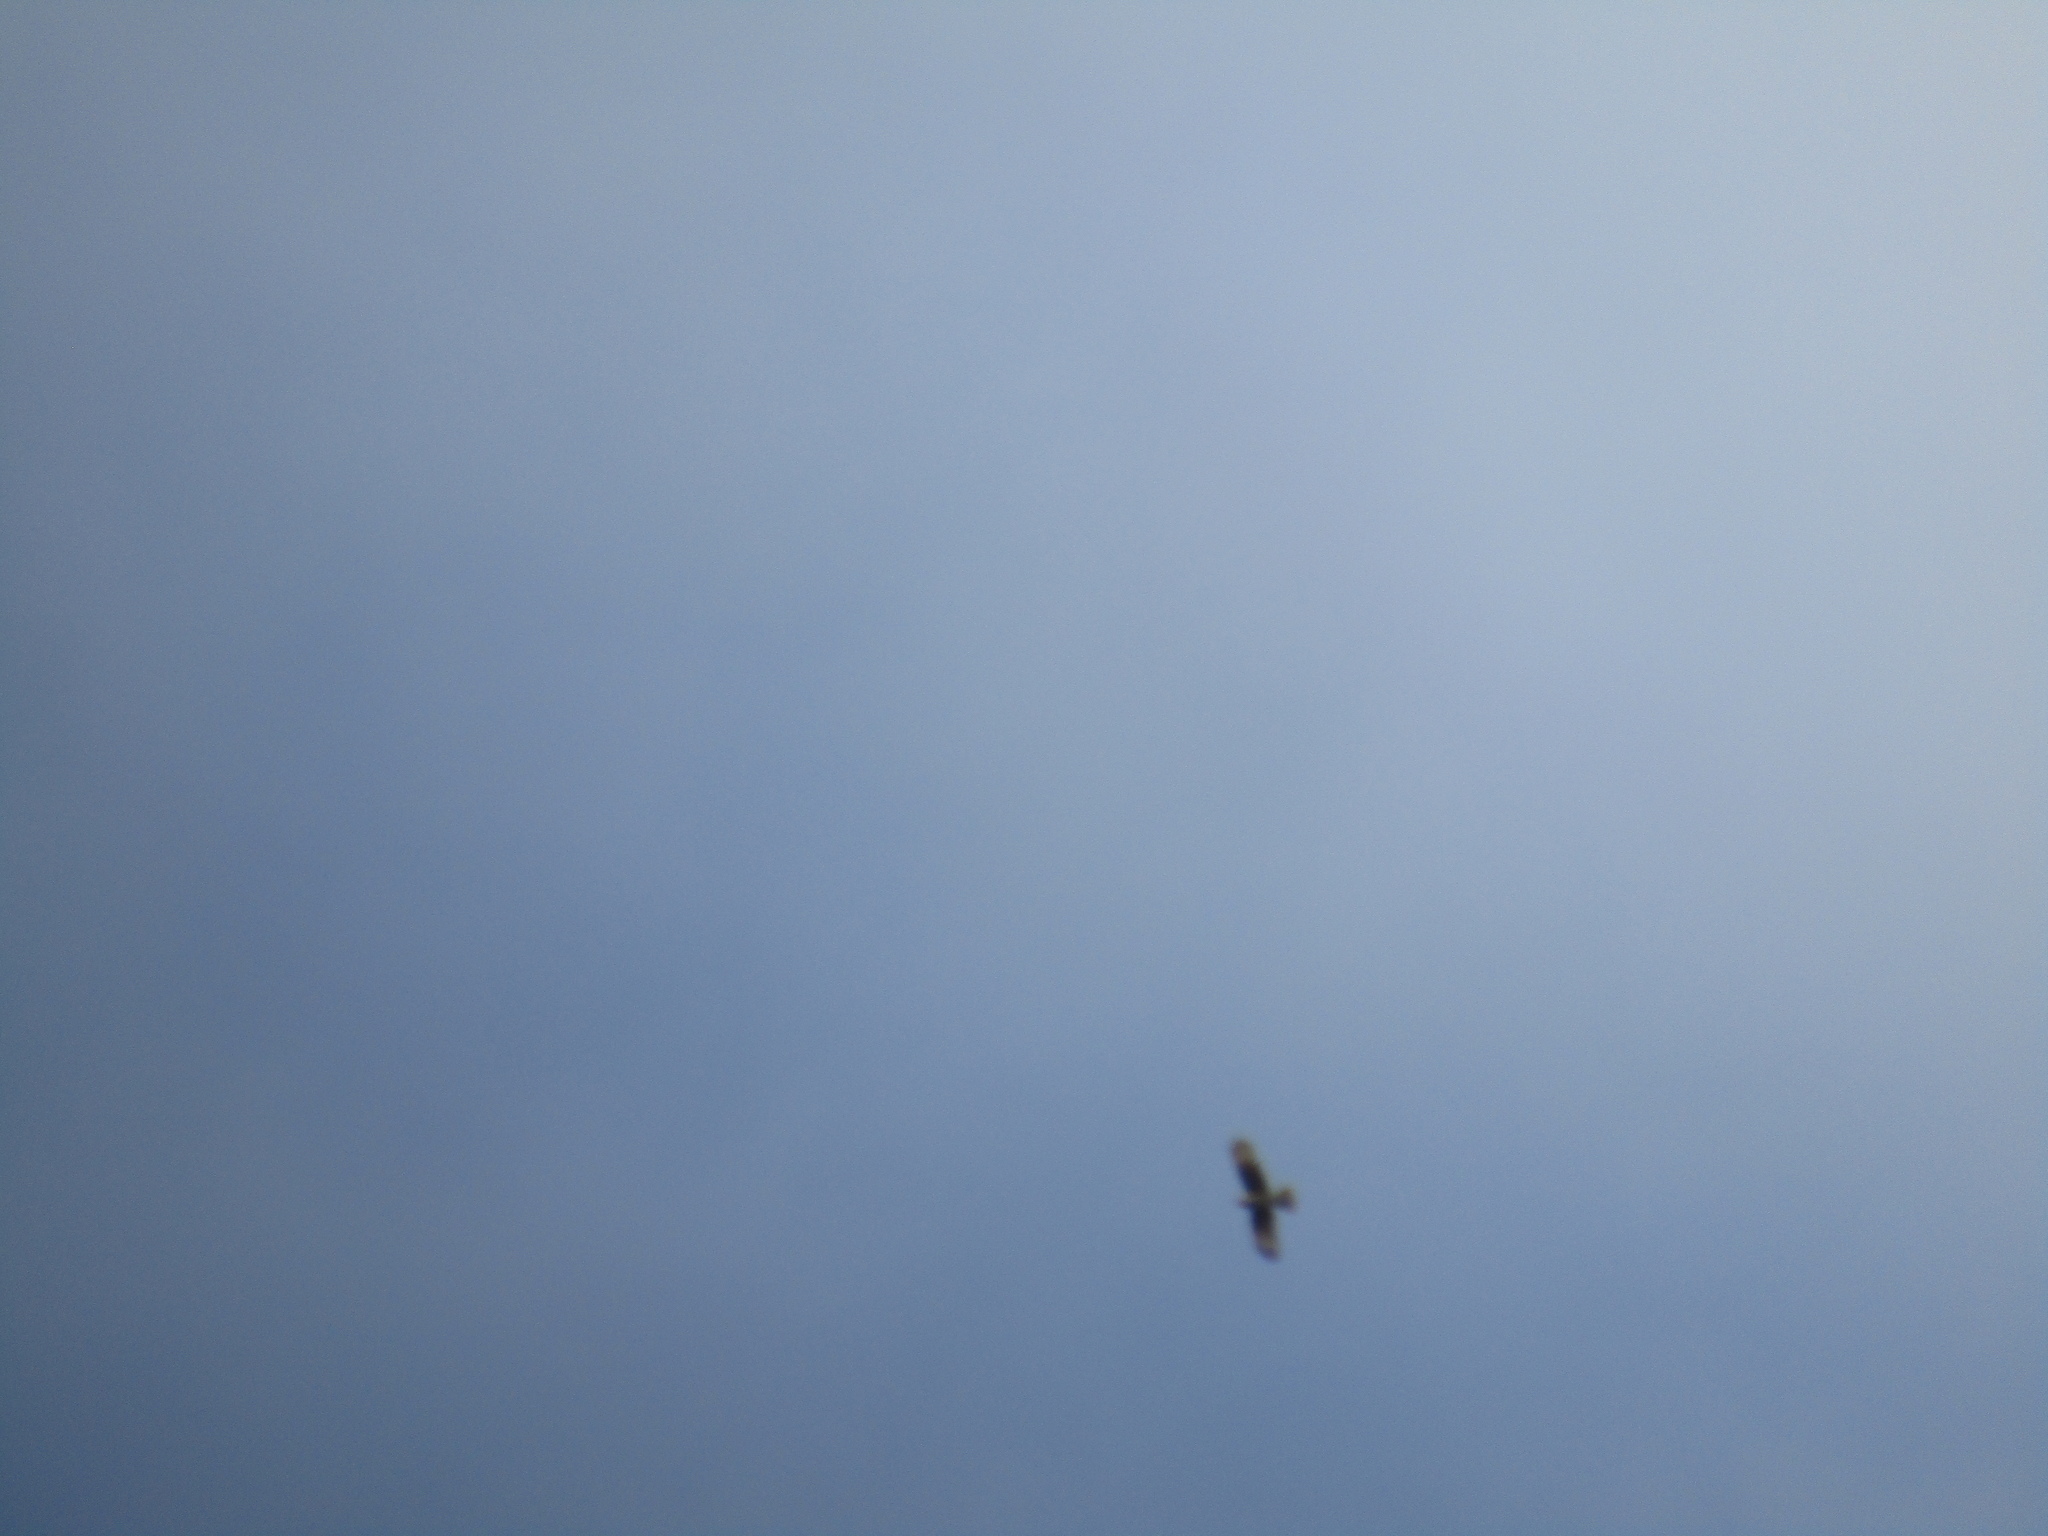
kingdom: Animalia
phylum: Chordata
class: Aves
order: Falconiformes
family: Falconidae
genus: Daptrius
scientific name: Daptrius
